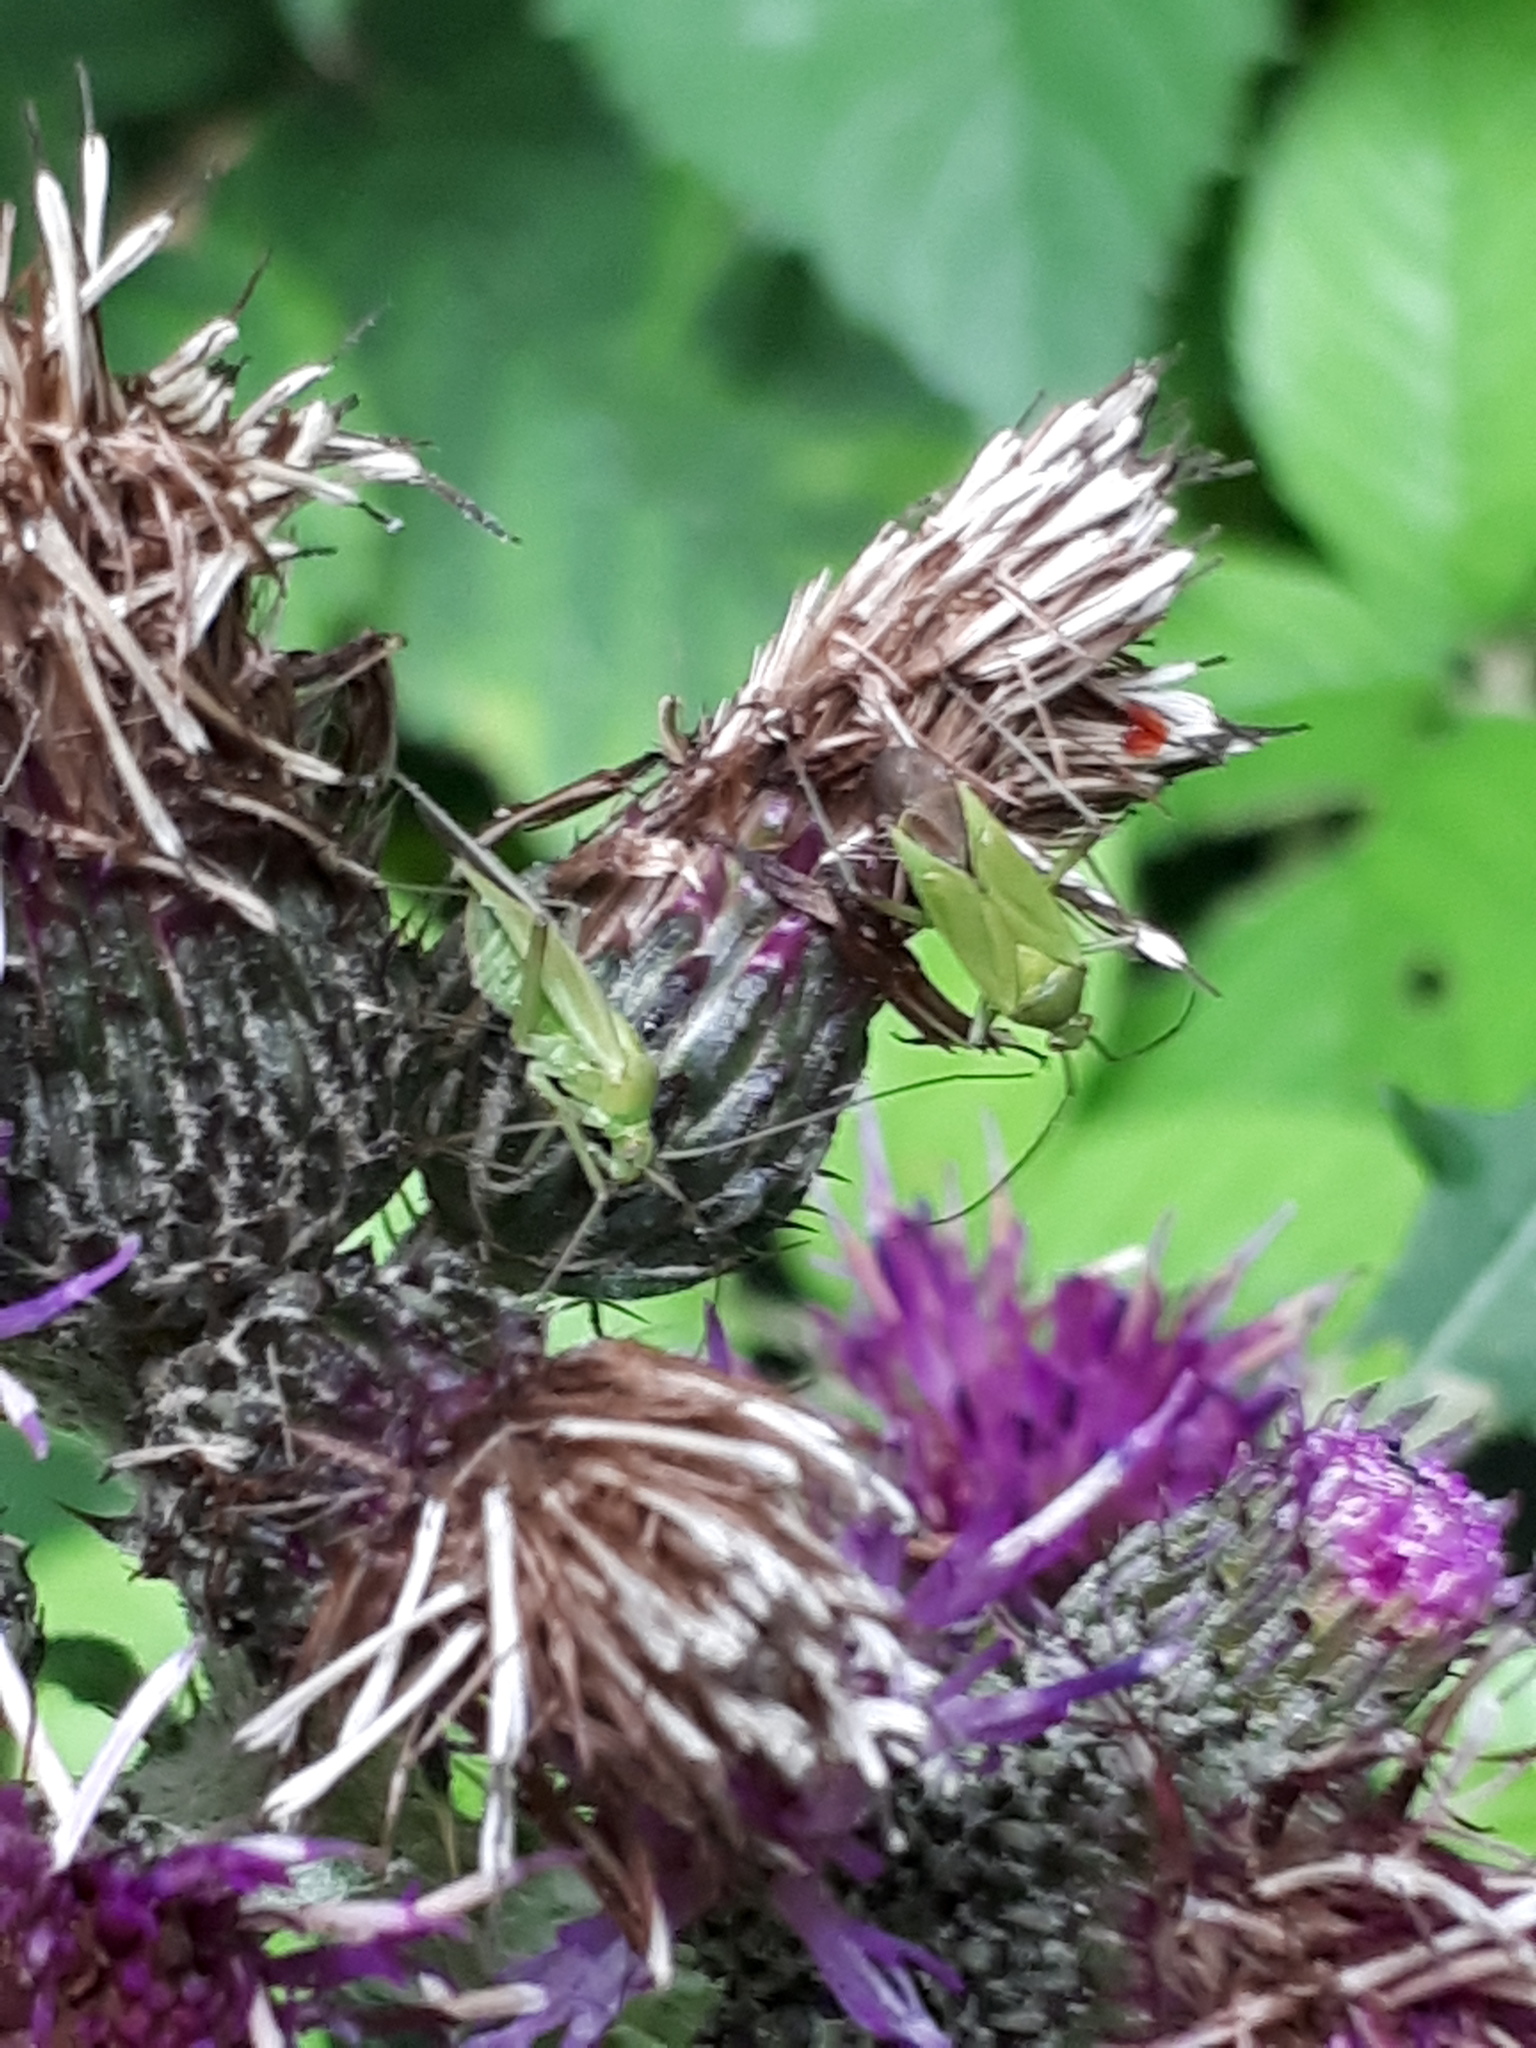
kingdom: Animalia
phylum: Arthropoda
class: Insecta
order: Hemiptera
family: Miridae
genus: Calocoris
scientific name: Calocoris affinis
